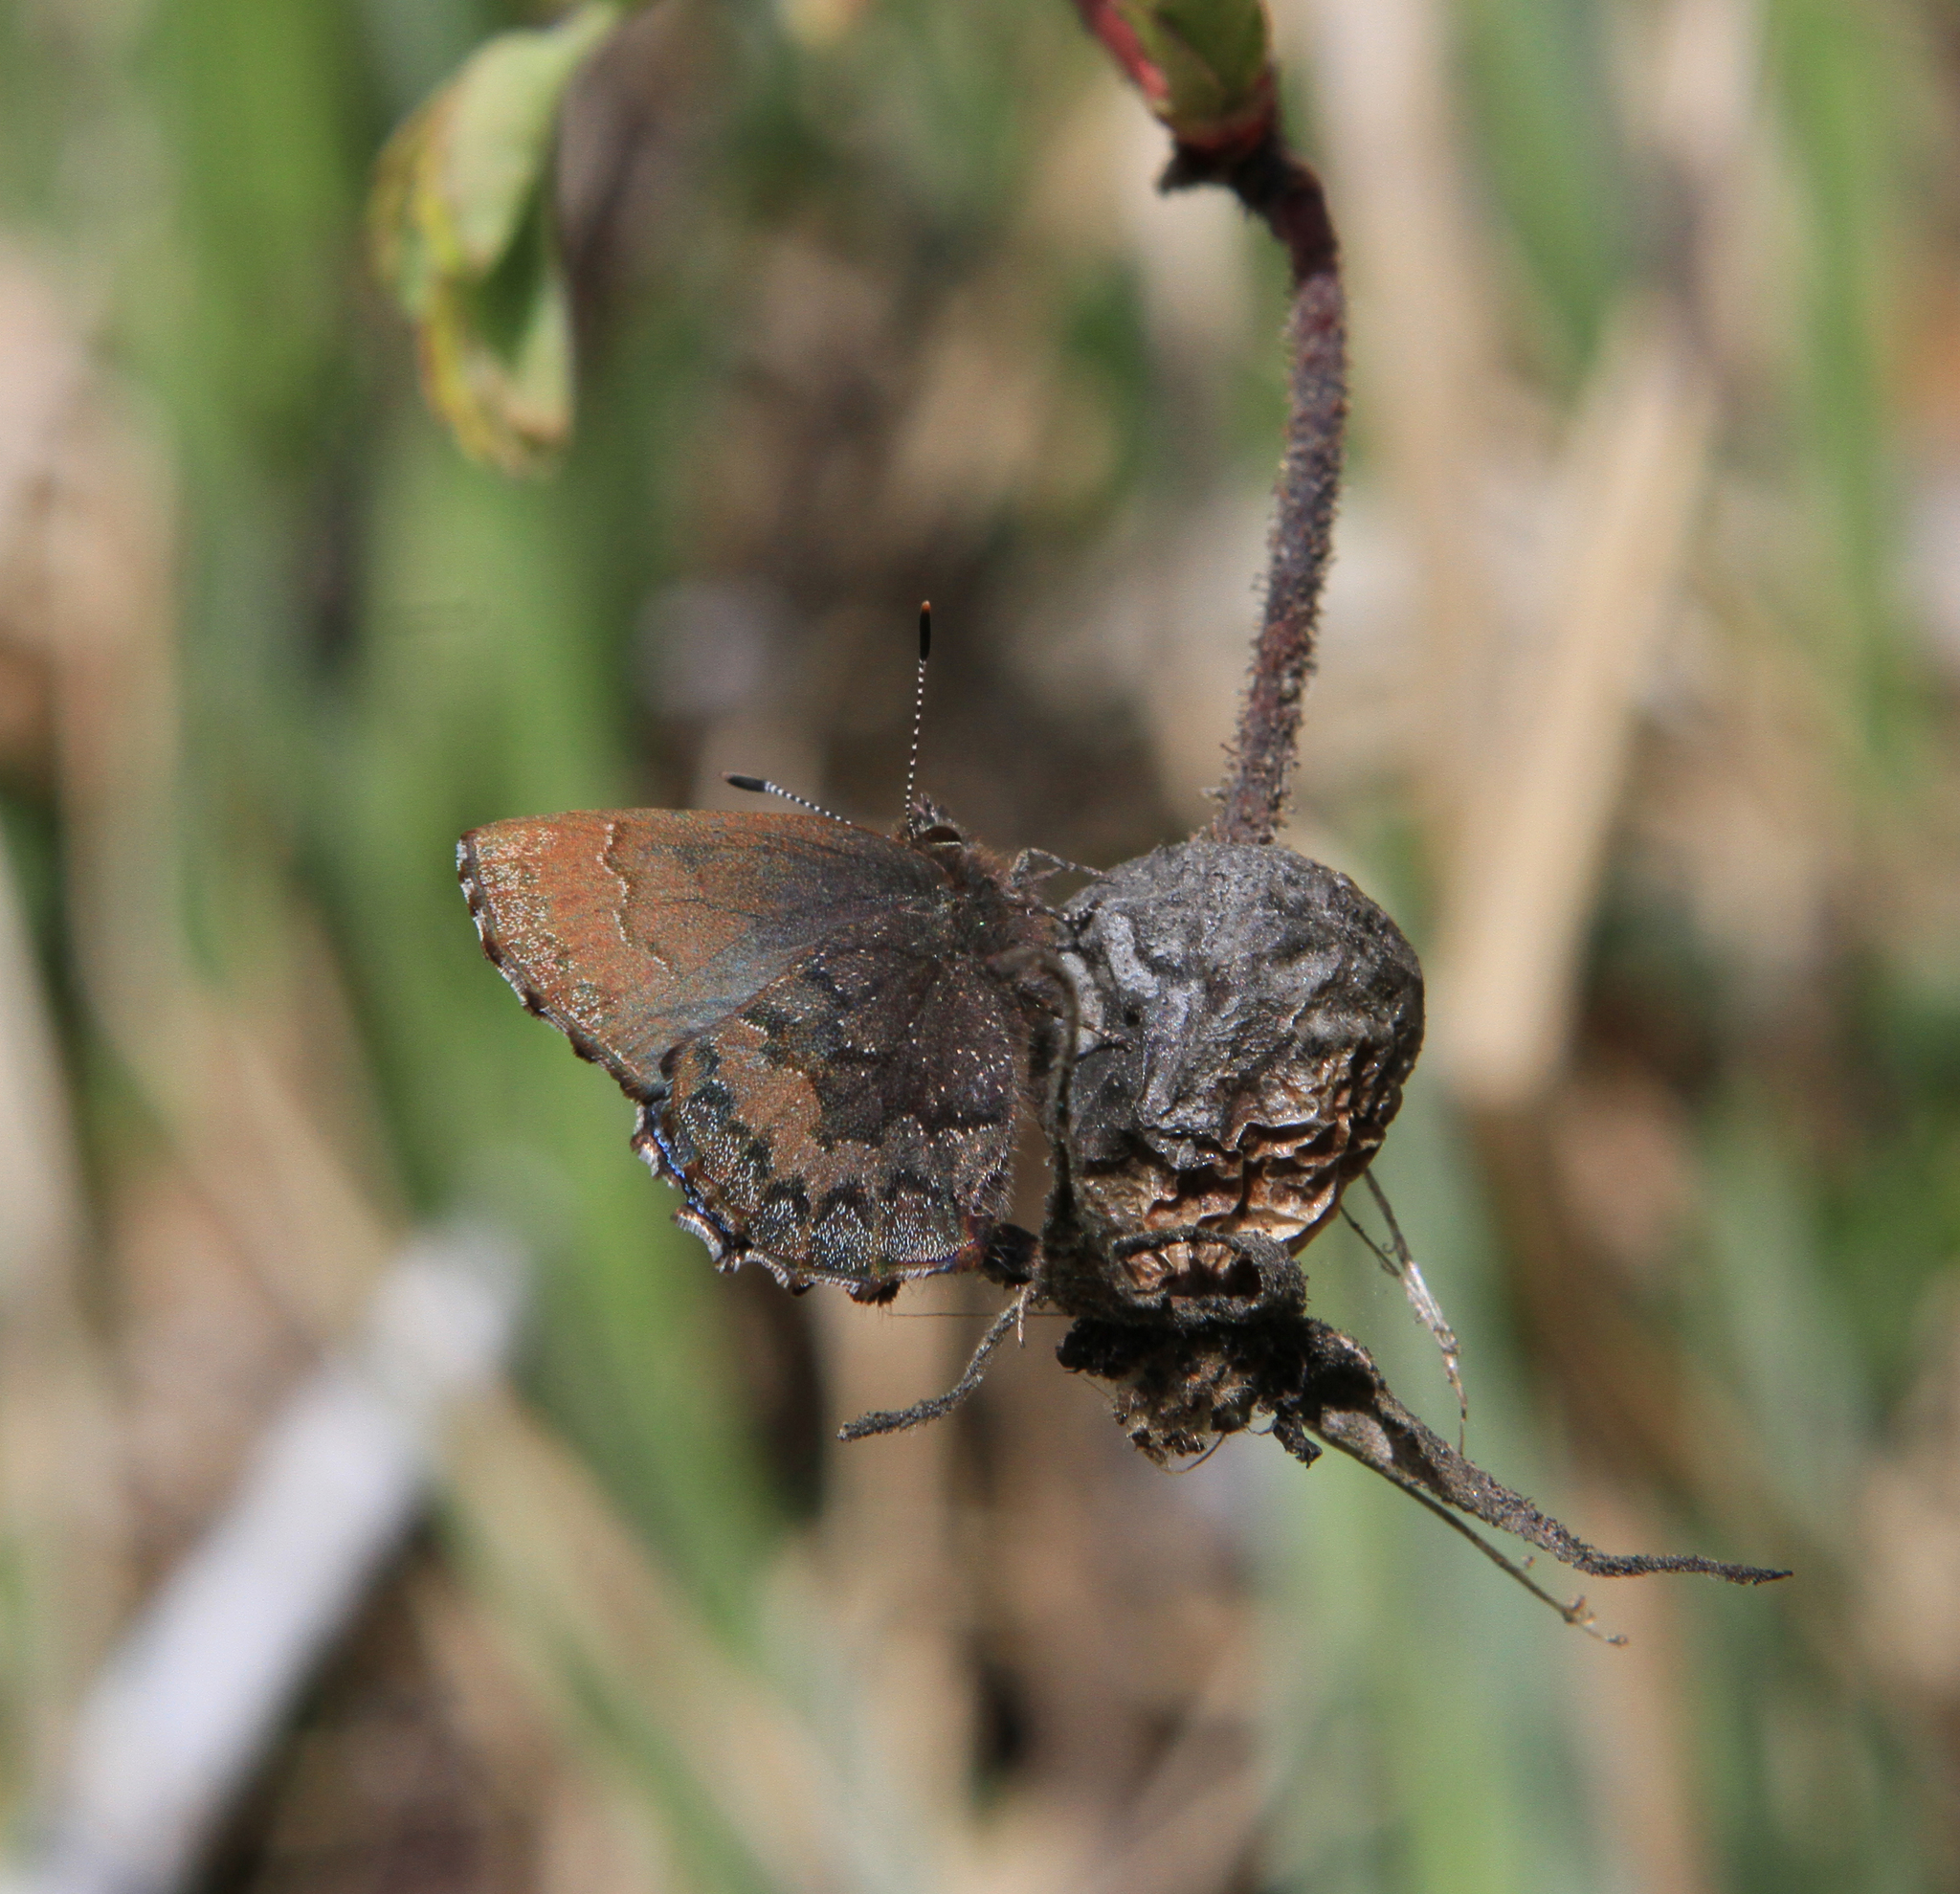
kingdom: Animalia
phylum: Arthropoda
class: Insecta
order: Lepidoptera
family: Lycaenidae
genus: Ginzia
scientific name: Ginzia Ahlbergia frivaldszkyi
